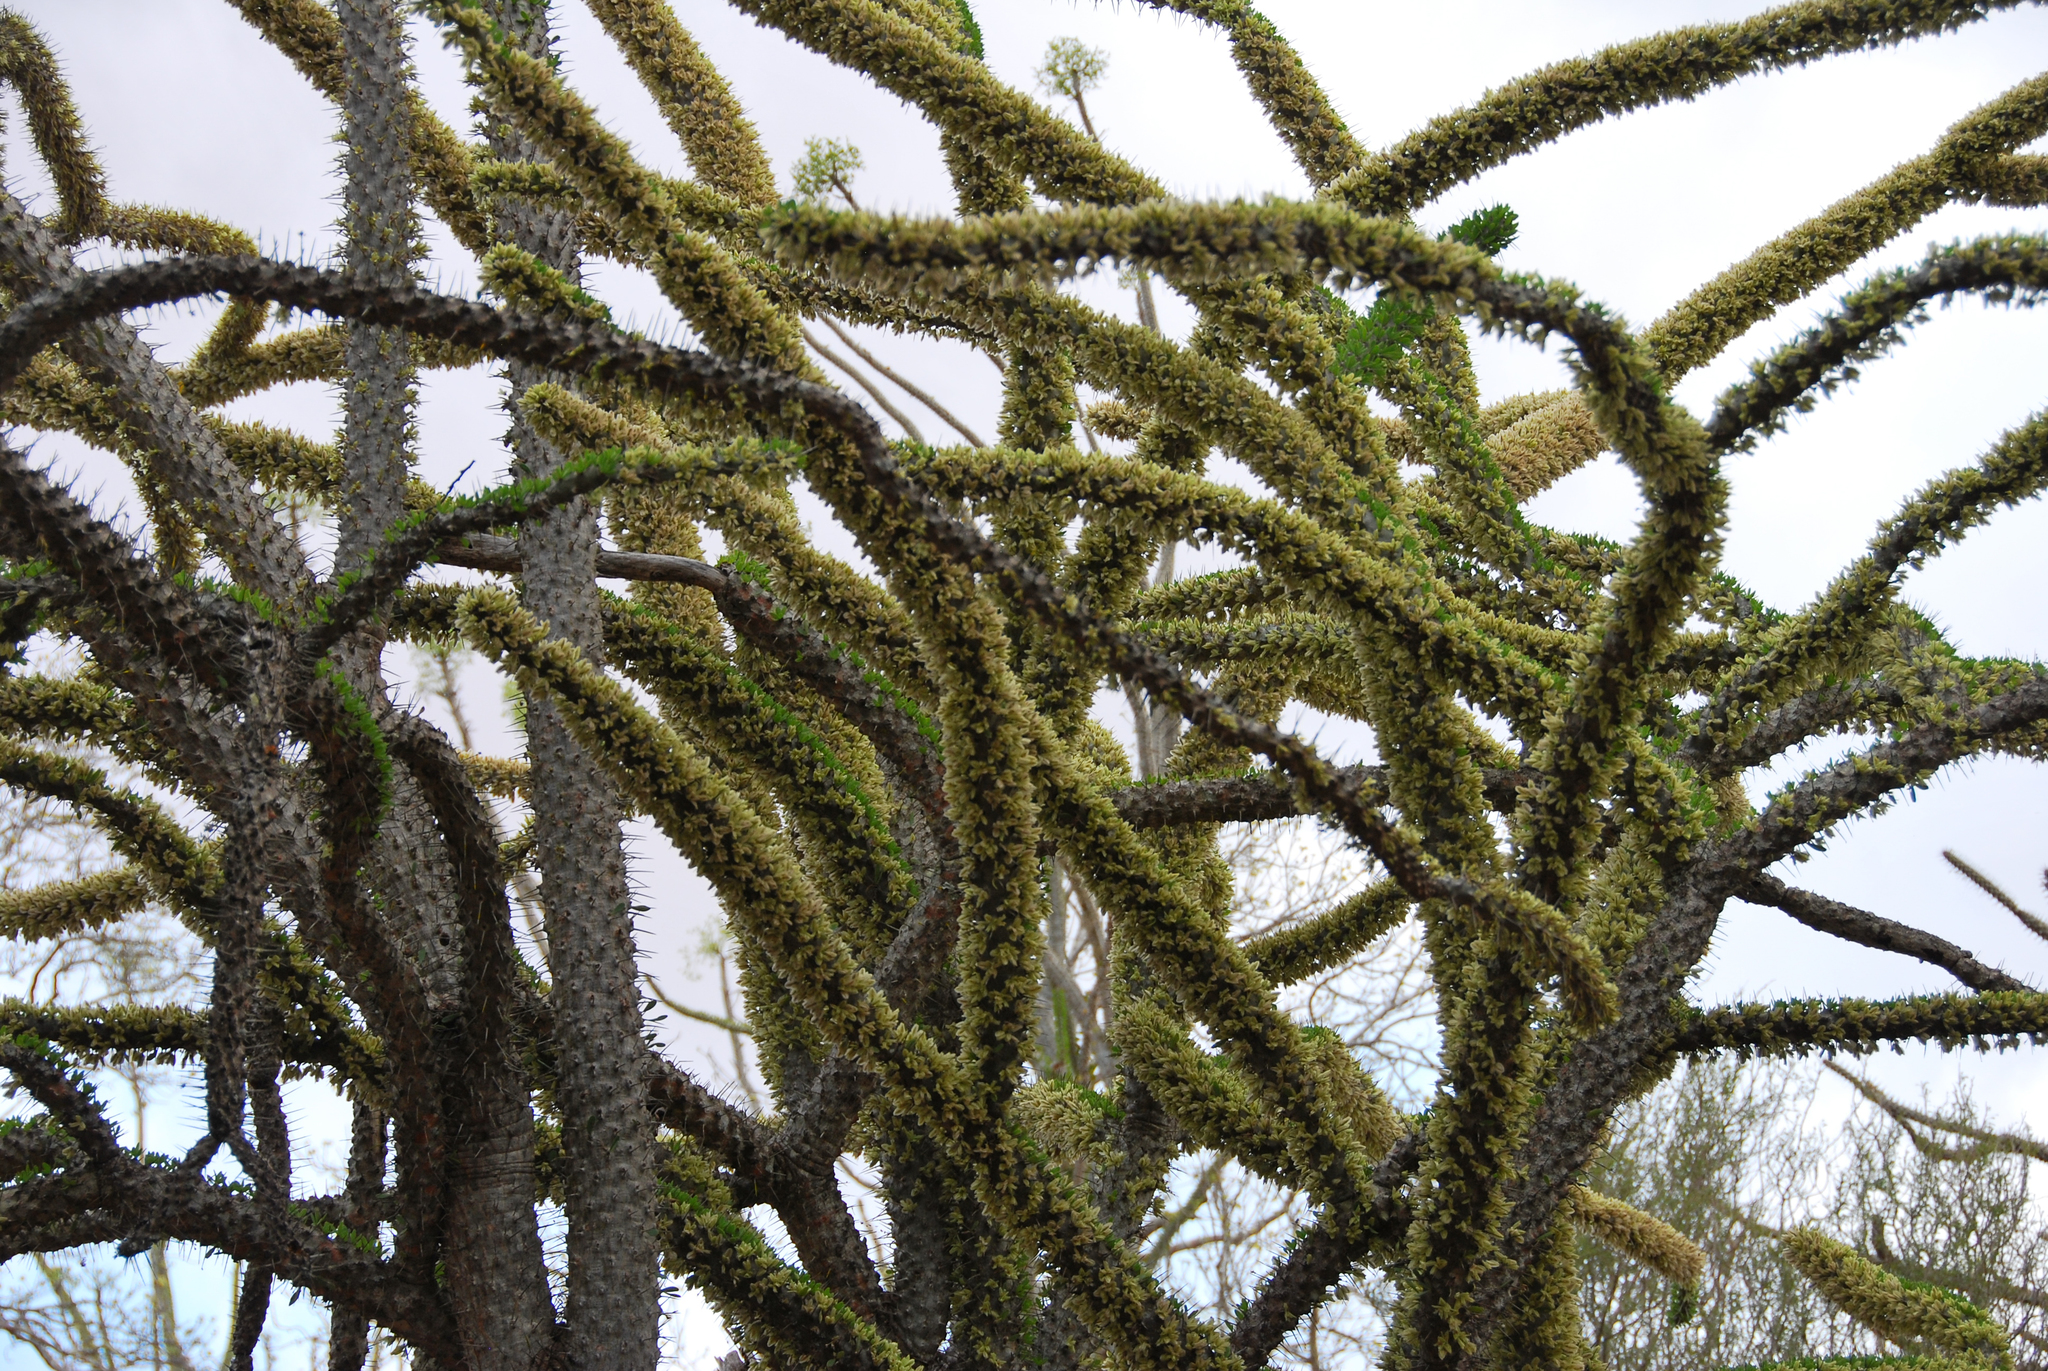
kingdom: Plantae
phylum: Tracheophyta
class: Magnoliopsida
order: Caryophyllales
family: Didiereaceae
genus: Didierea
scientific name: Didierea trollii
